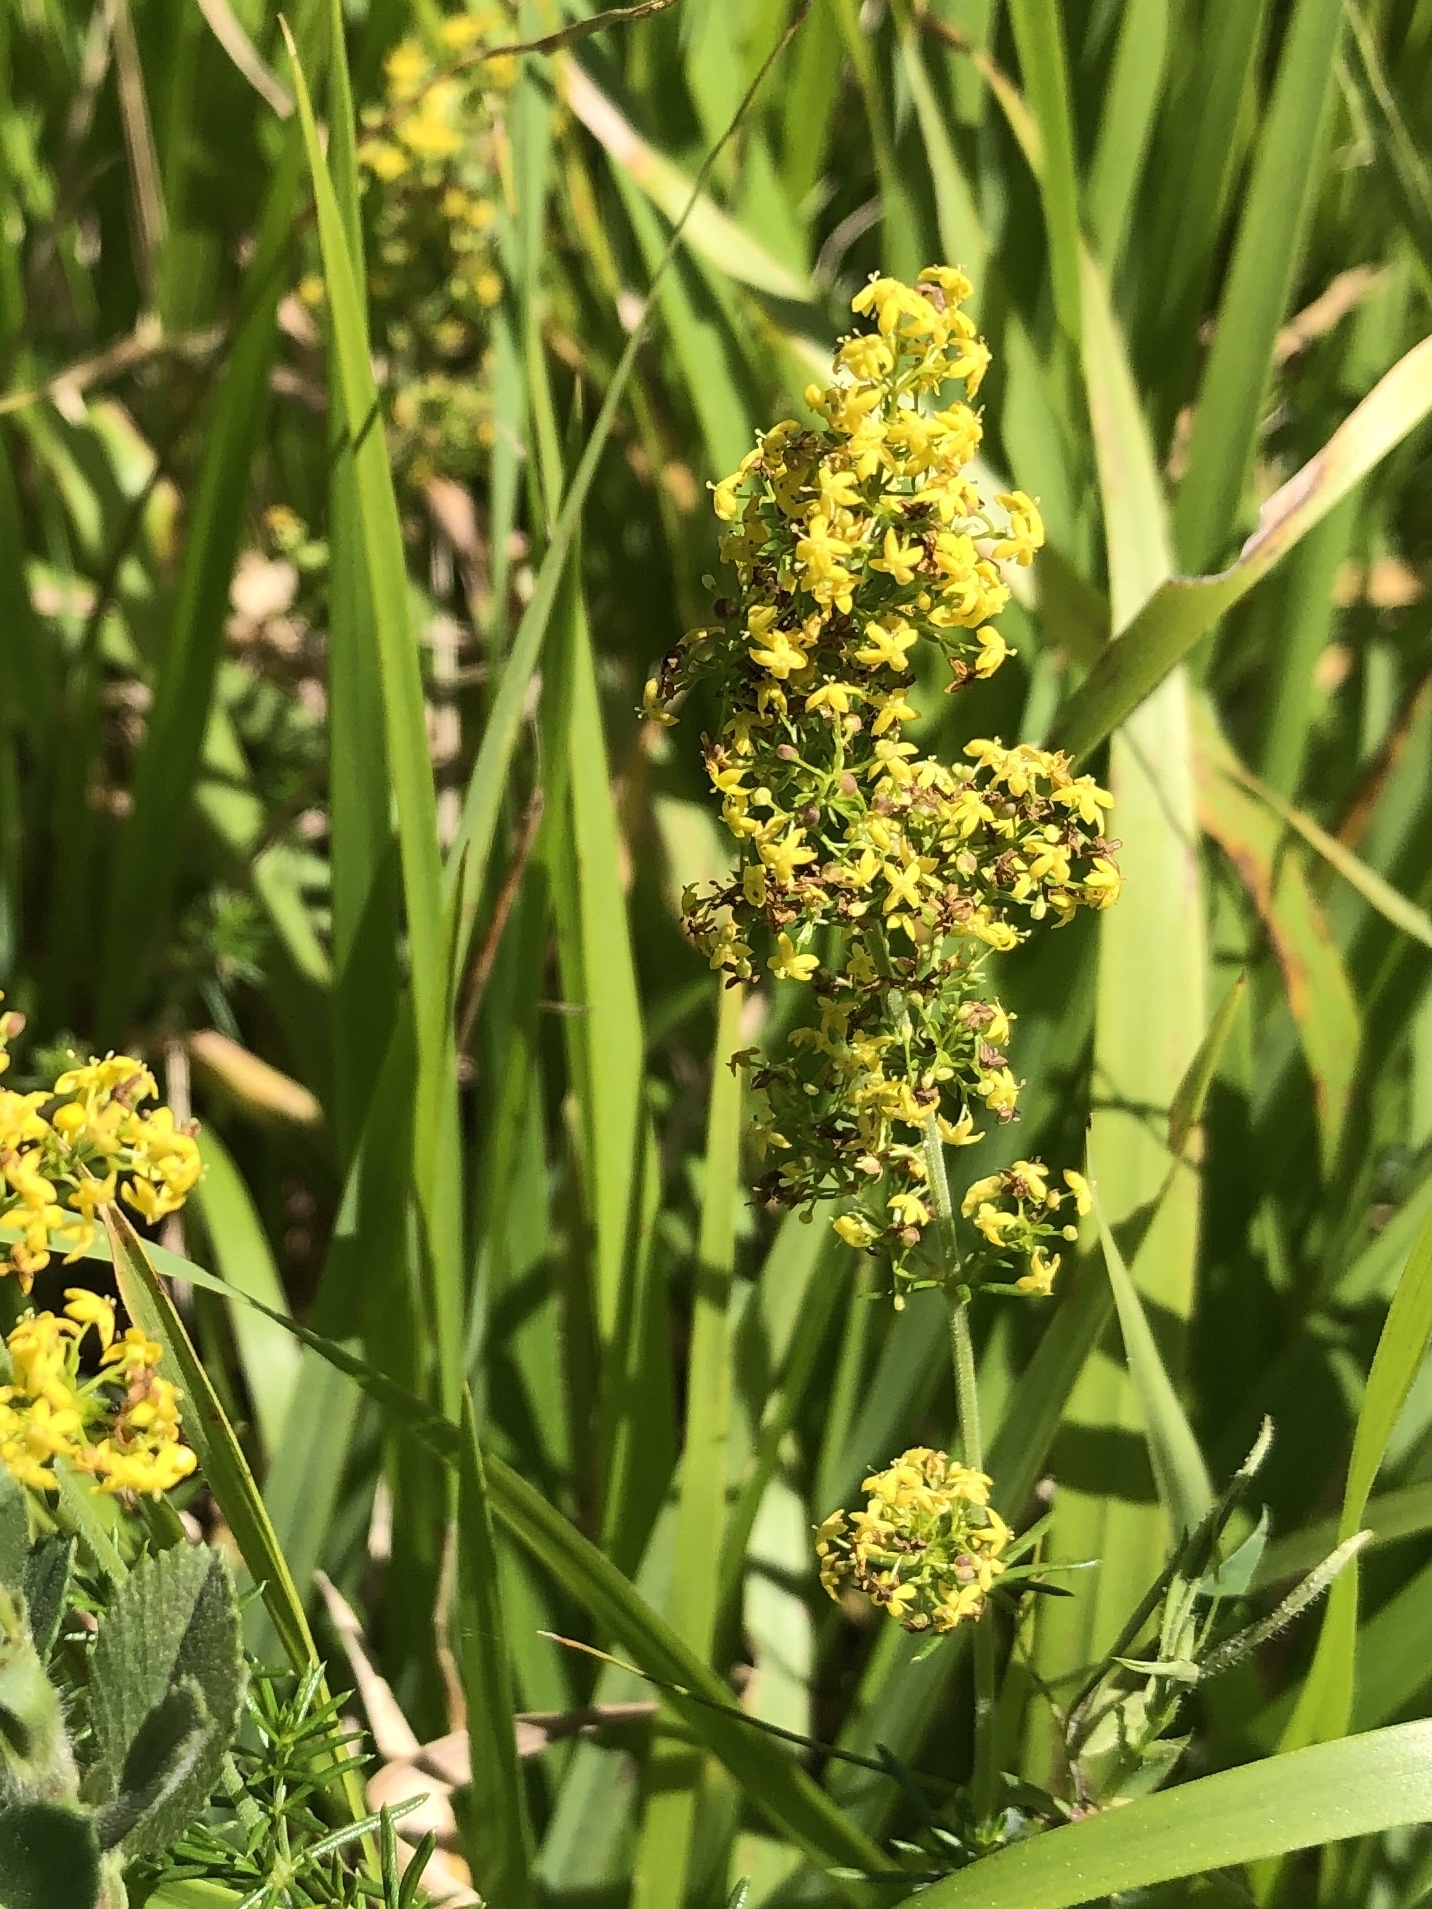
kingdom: Plantae
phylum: Tracheophyta
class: Magnoliopsida
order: Gentianales
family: Rubiaceae
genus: Galium
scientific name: Galium verum
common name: Lady's bedstraw
